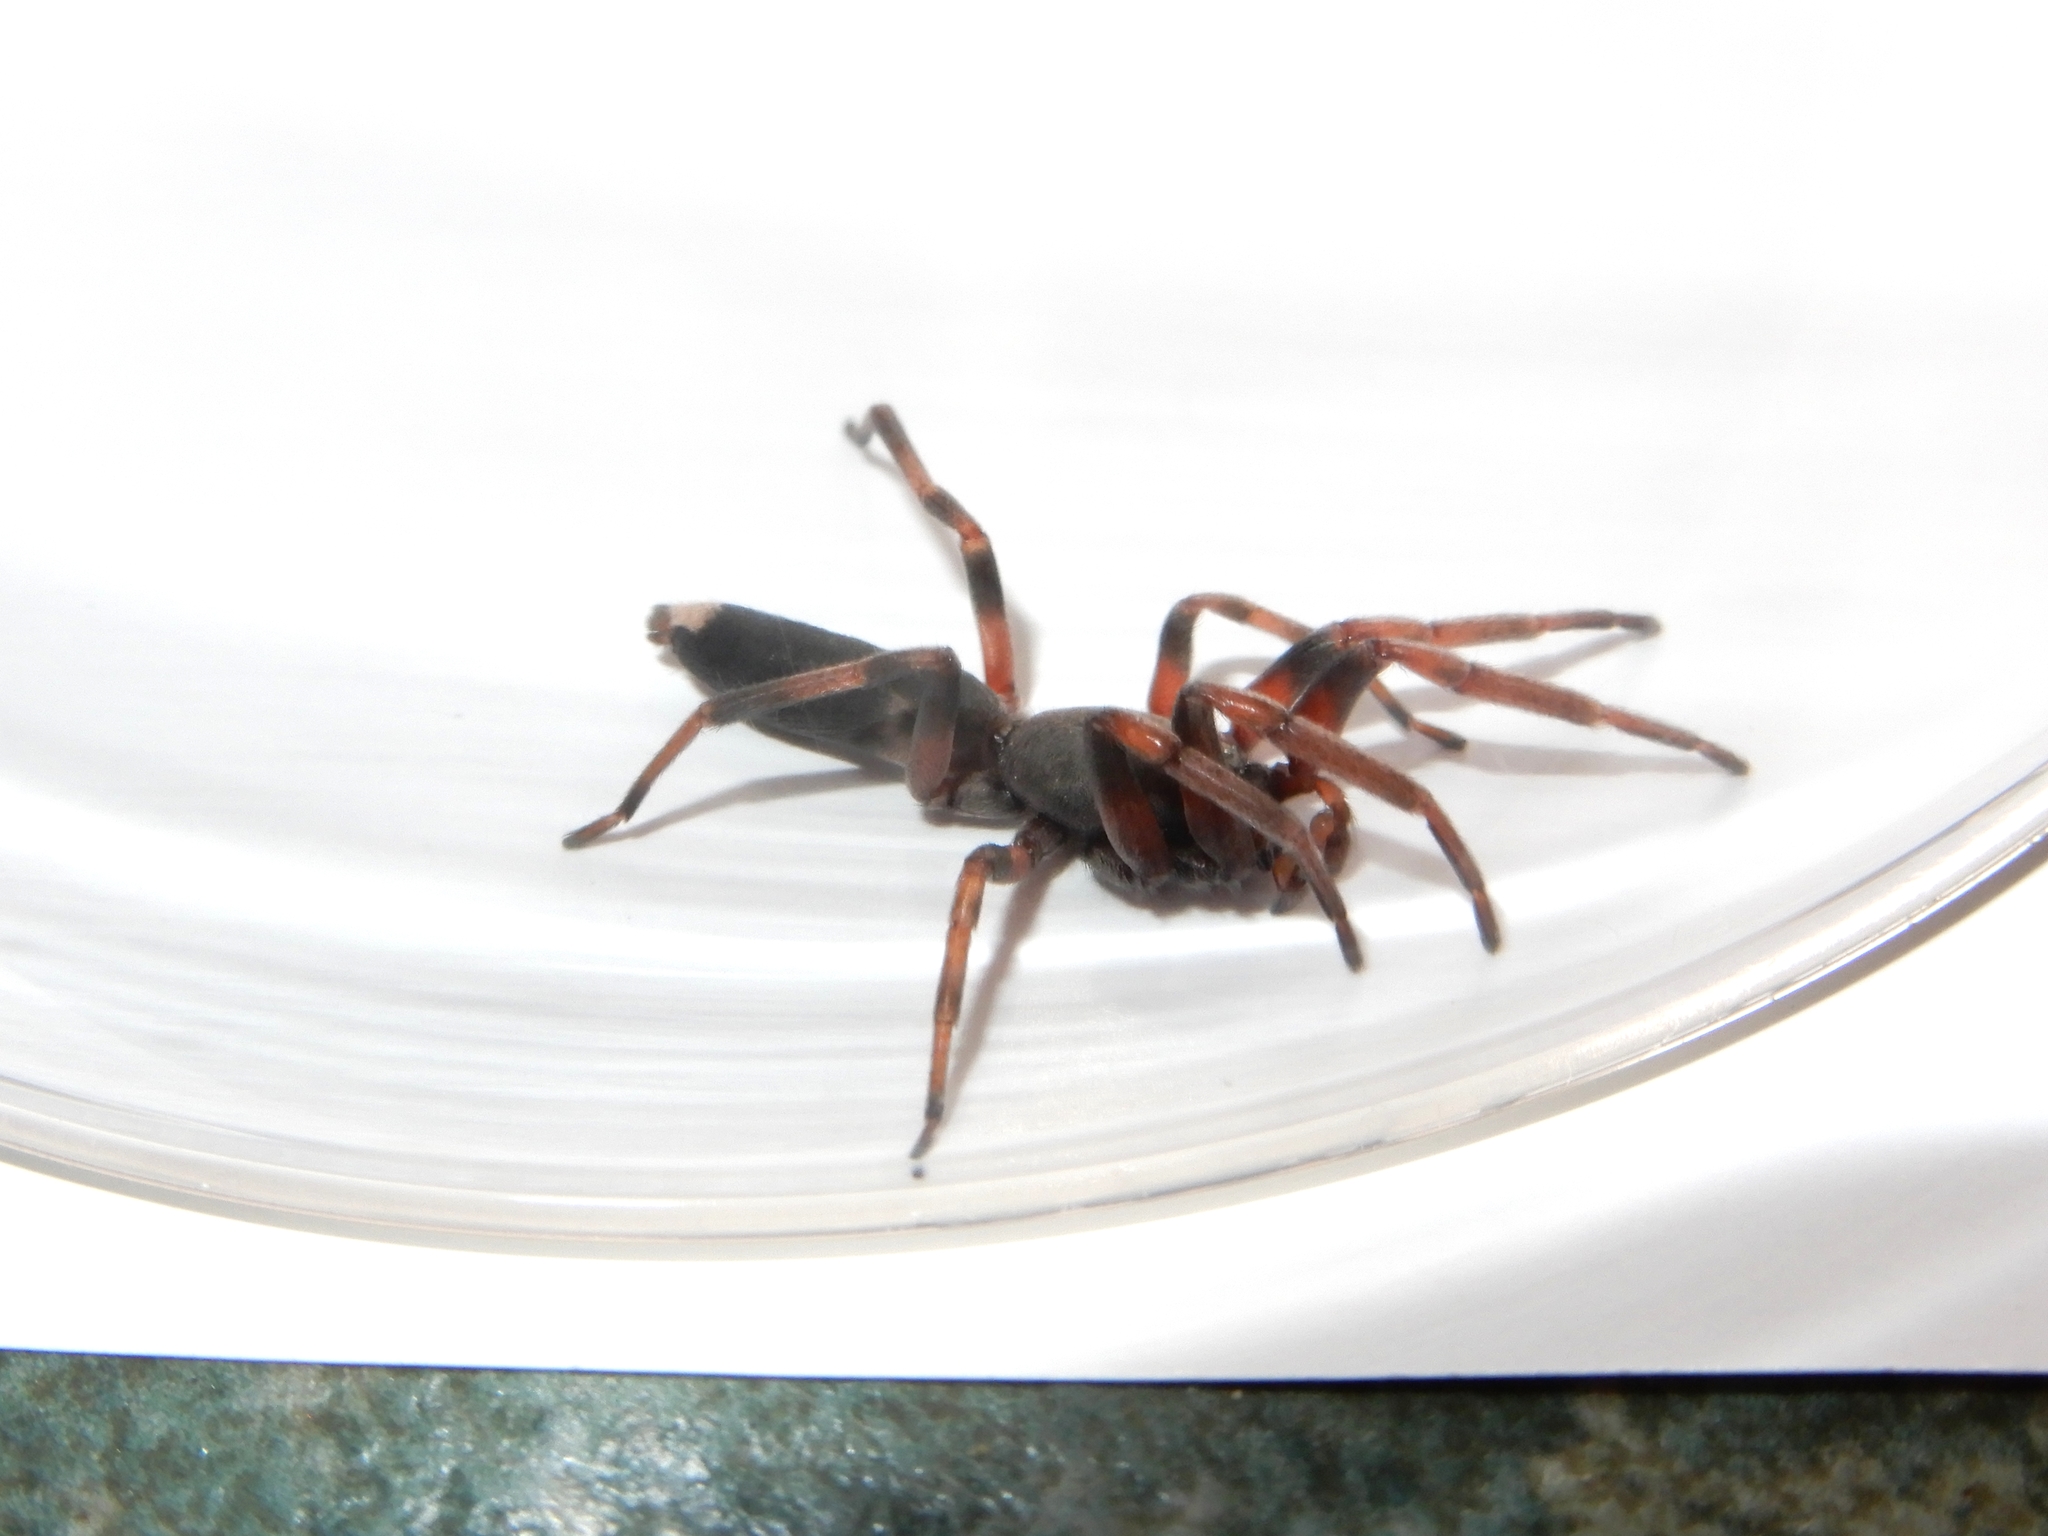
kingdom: Animalia
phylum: Arthropoda
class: Arachnida
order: Araneae
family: Lamponidae
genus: Lampona
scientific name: Lampona murina
